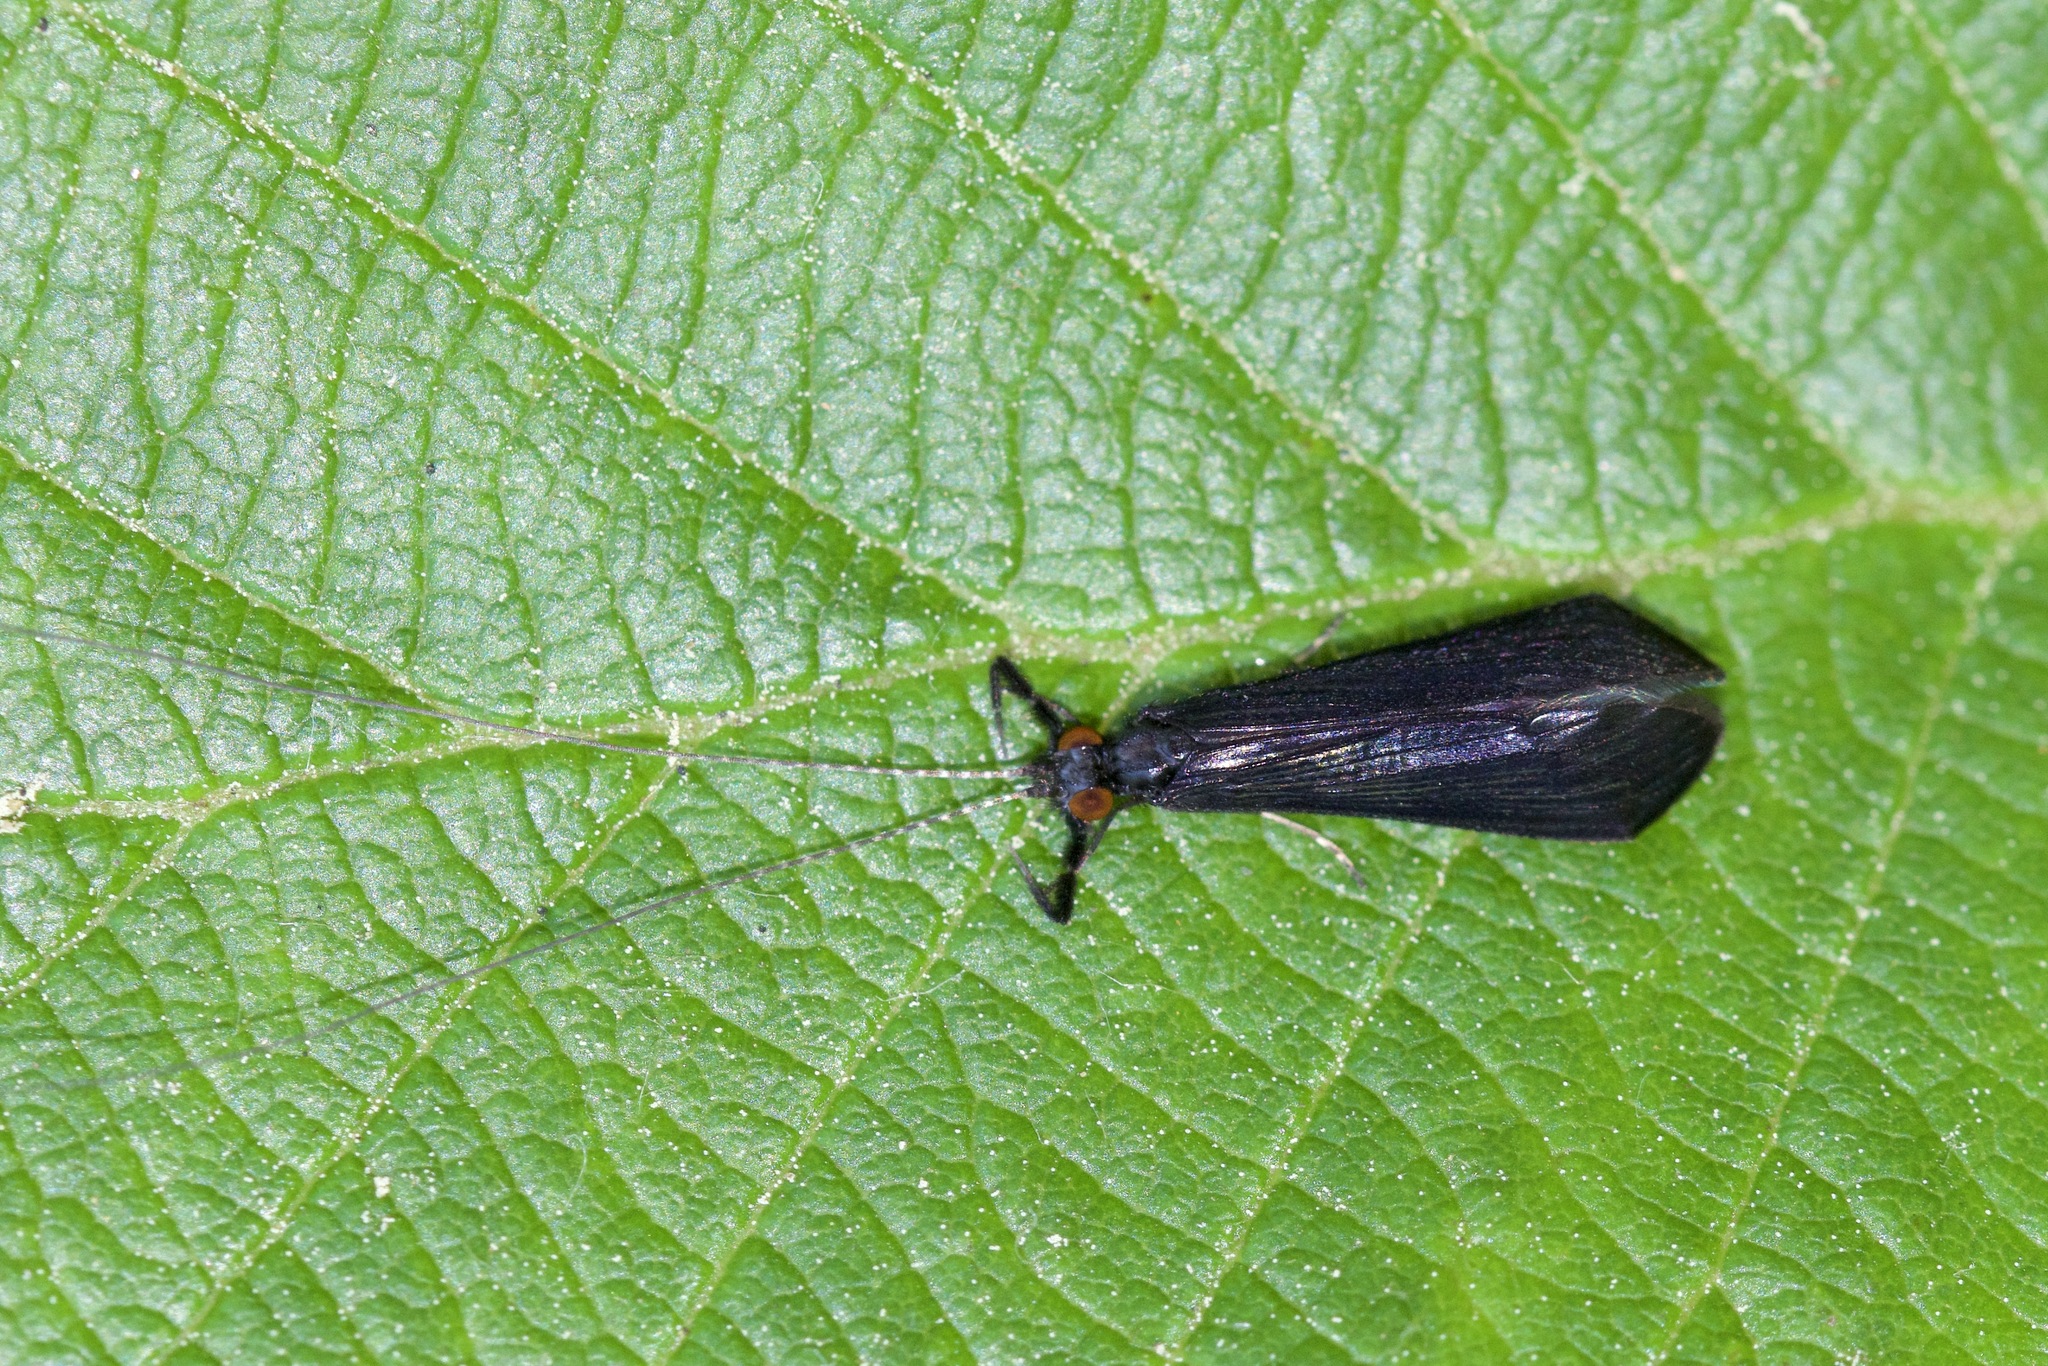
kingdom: Animalia
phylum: Arthropoda
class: Insecta
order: Trichoptera
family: Leptoceridae
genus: Mystacides
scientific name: Mystacides sepulchralis
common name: Black dancer caddisfly
